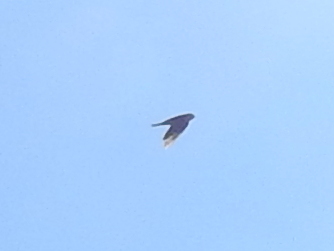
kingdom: Animalia
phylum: Chordata
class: Aves
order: Passeriformes
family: Hirundinidae
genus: Delichon
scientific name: Delichon urbicum
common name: Common house martin
